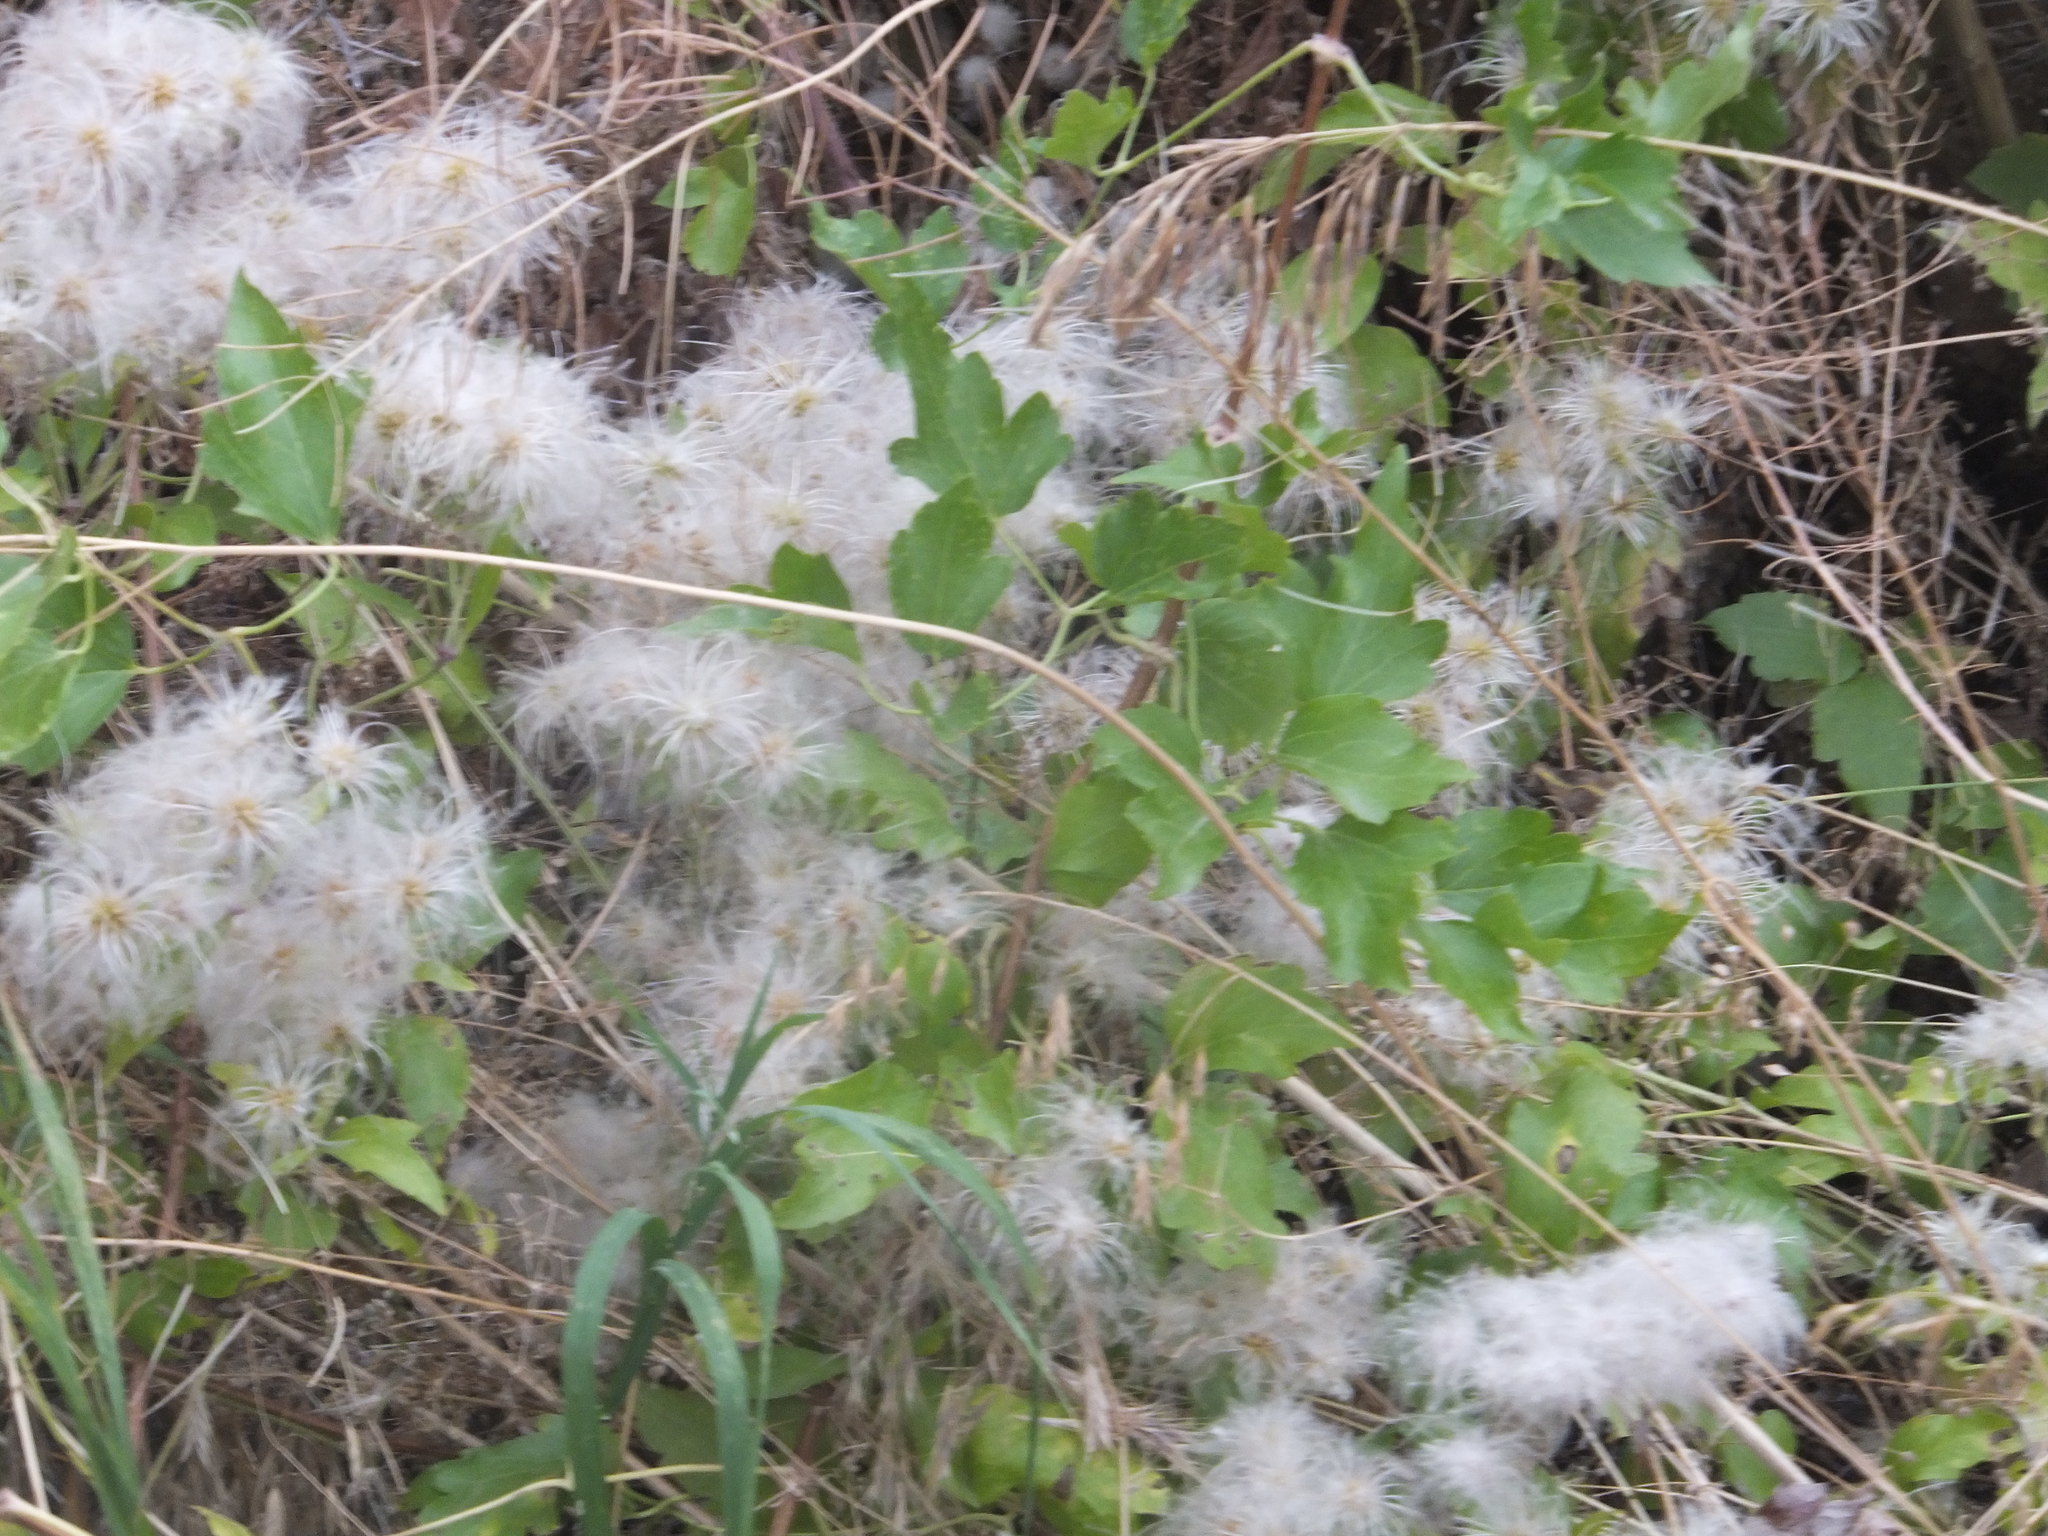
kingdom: Plantae
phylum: Tracheophyta
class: Magnoliopsida
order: Ranunculales
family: Ranunculaceae
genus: Clematis
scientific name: Clematis ligusticifolia
